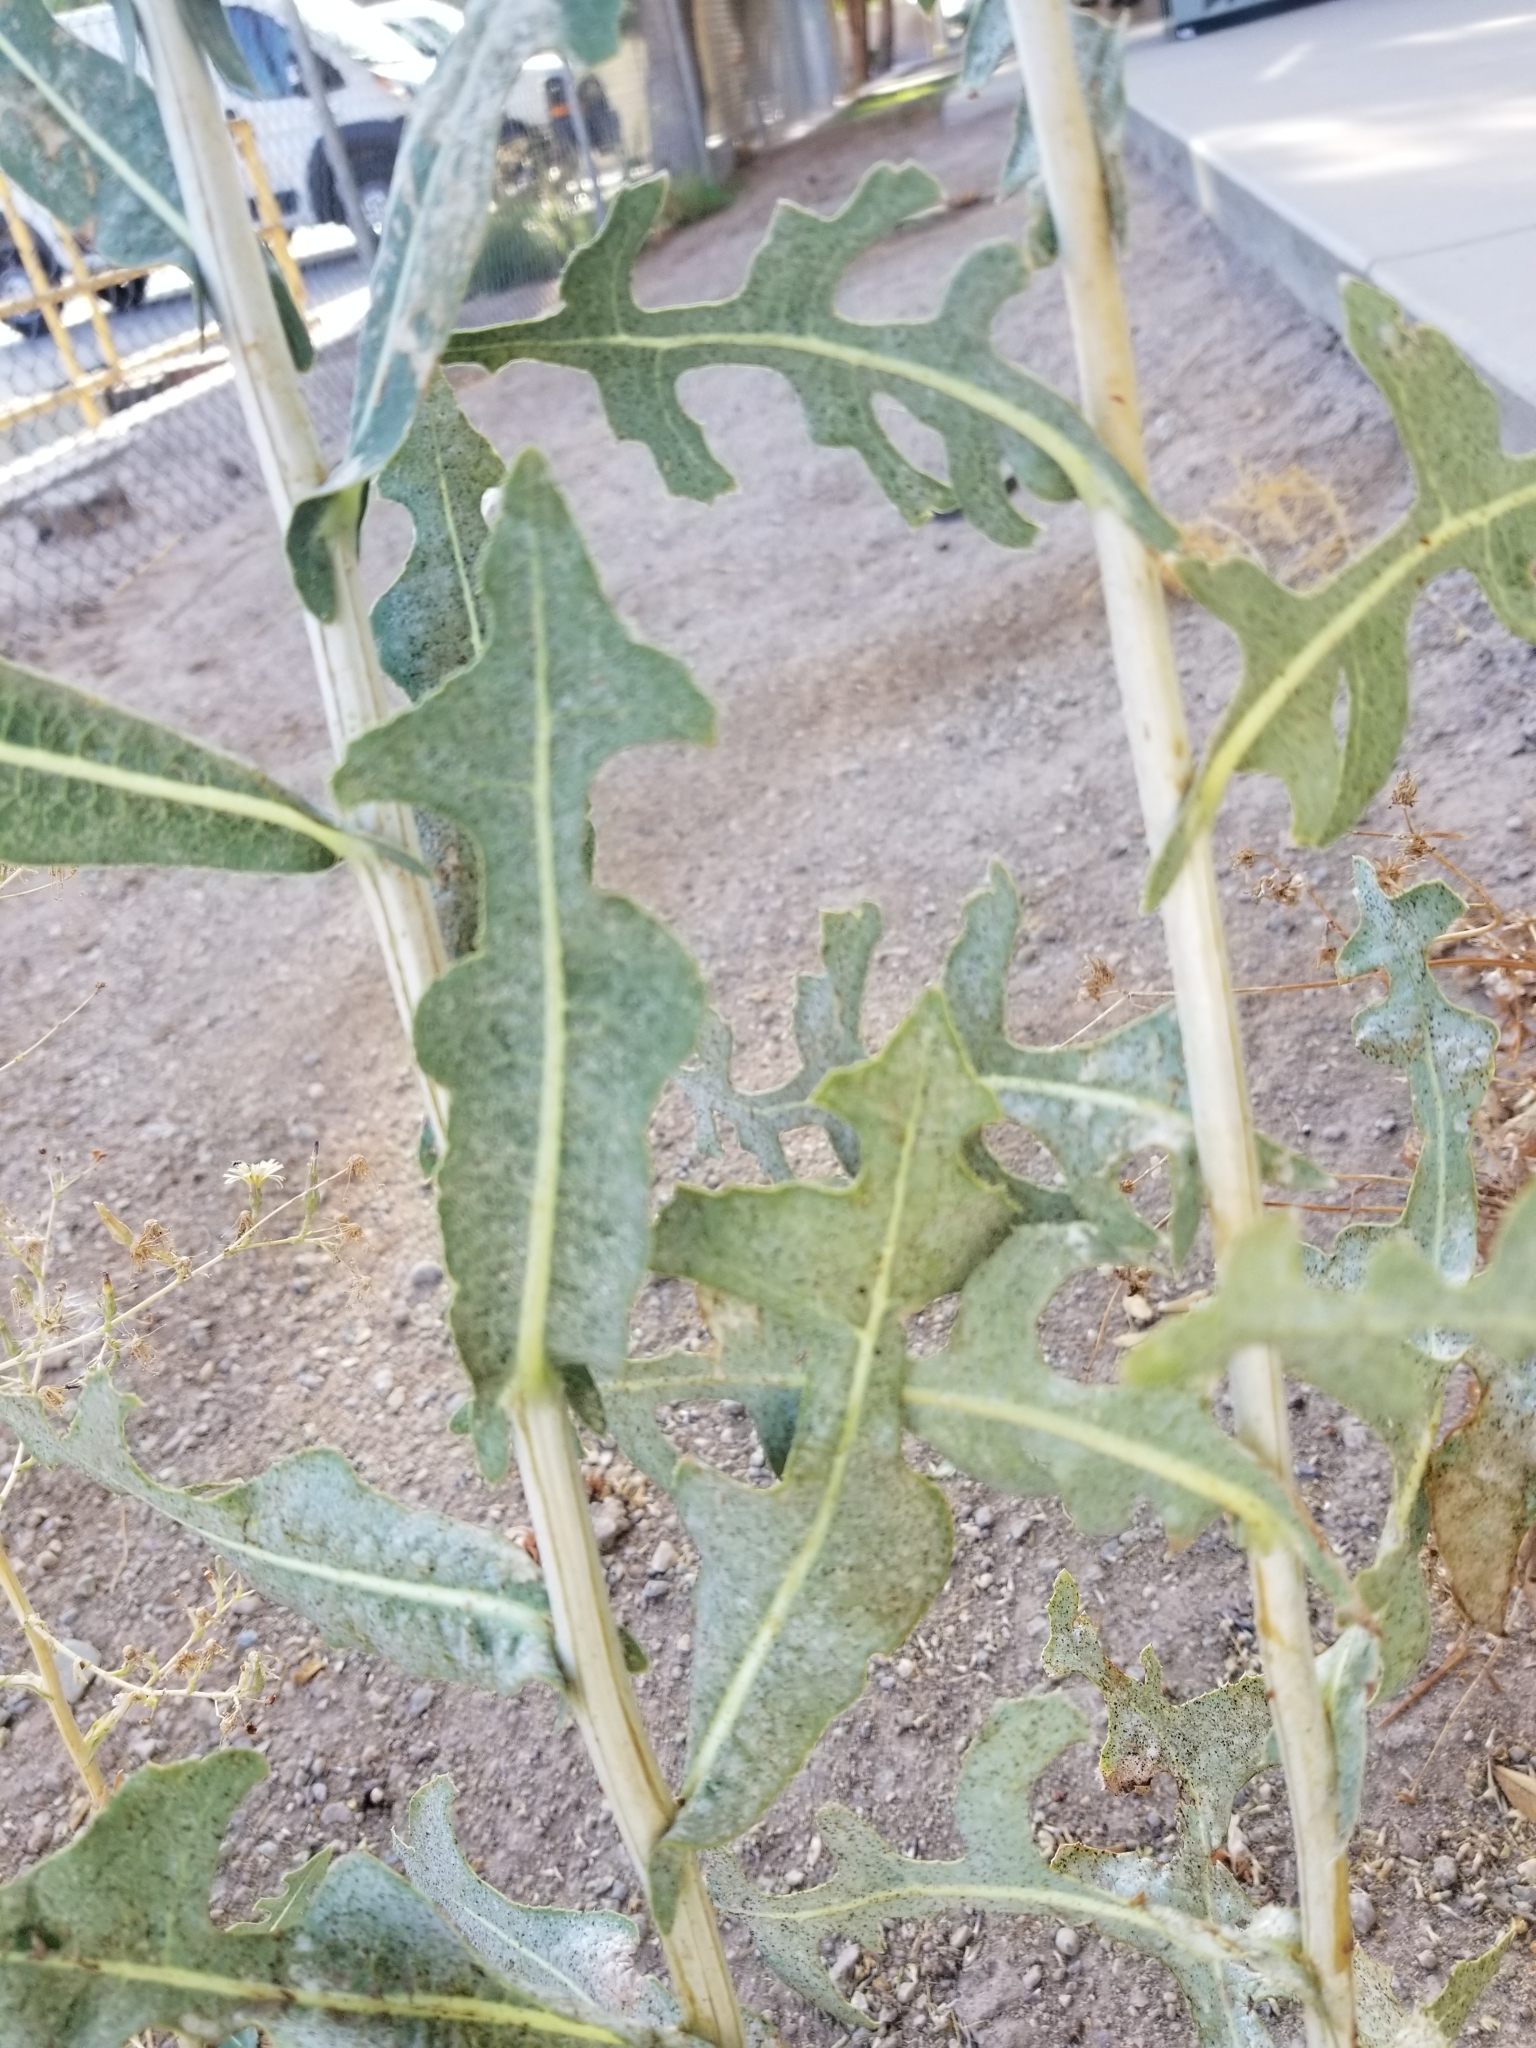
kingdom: Plantae
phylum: Tracheophyta
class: Magnoliopsida
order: Asterales
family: Asteraceae
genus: Lactuca
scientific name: Lactuca serriola
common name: Prickly lettuce
